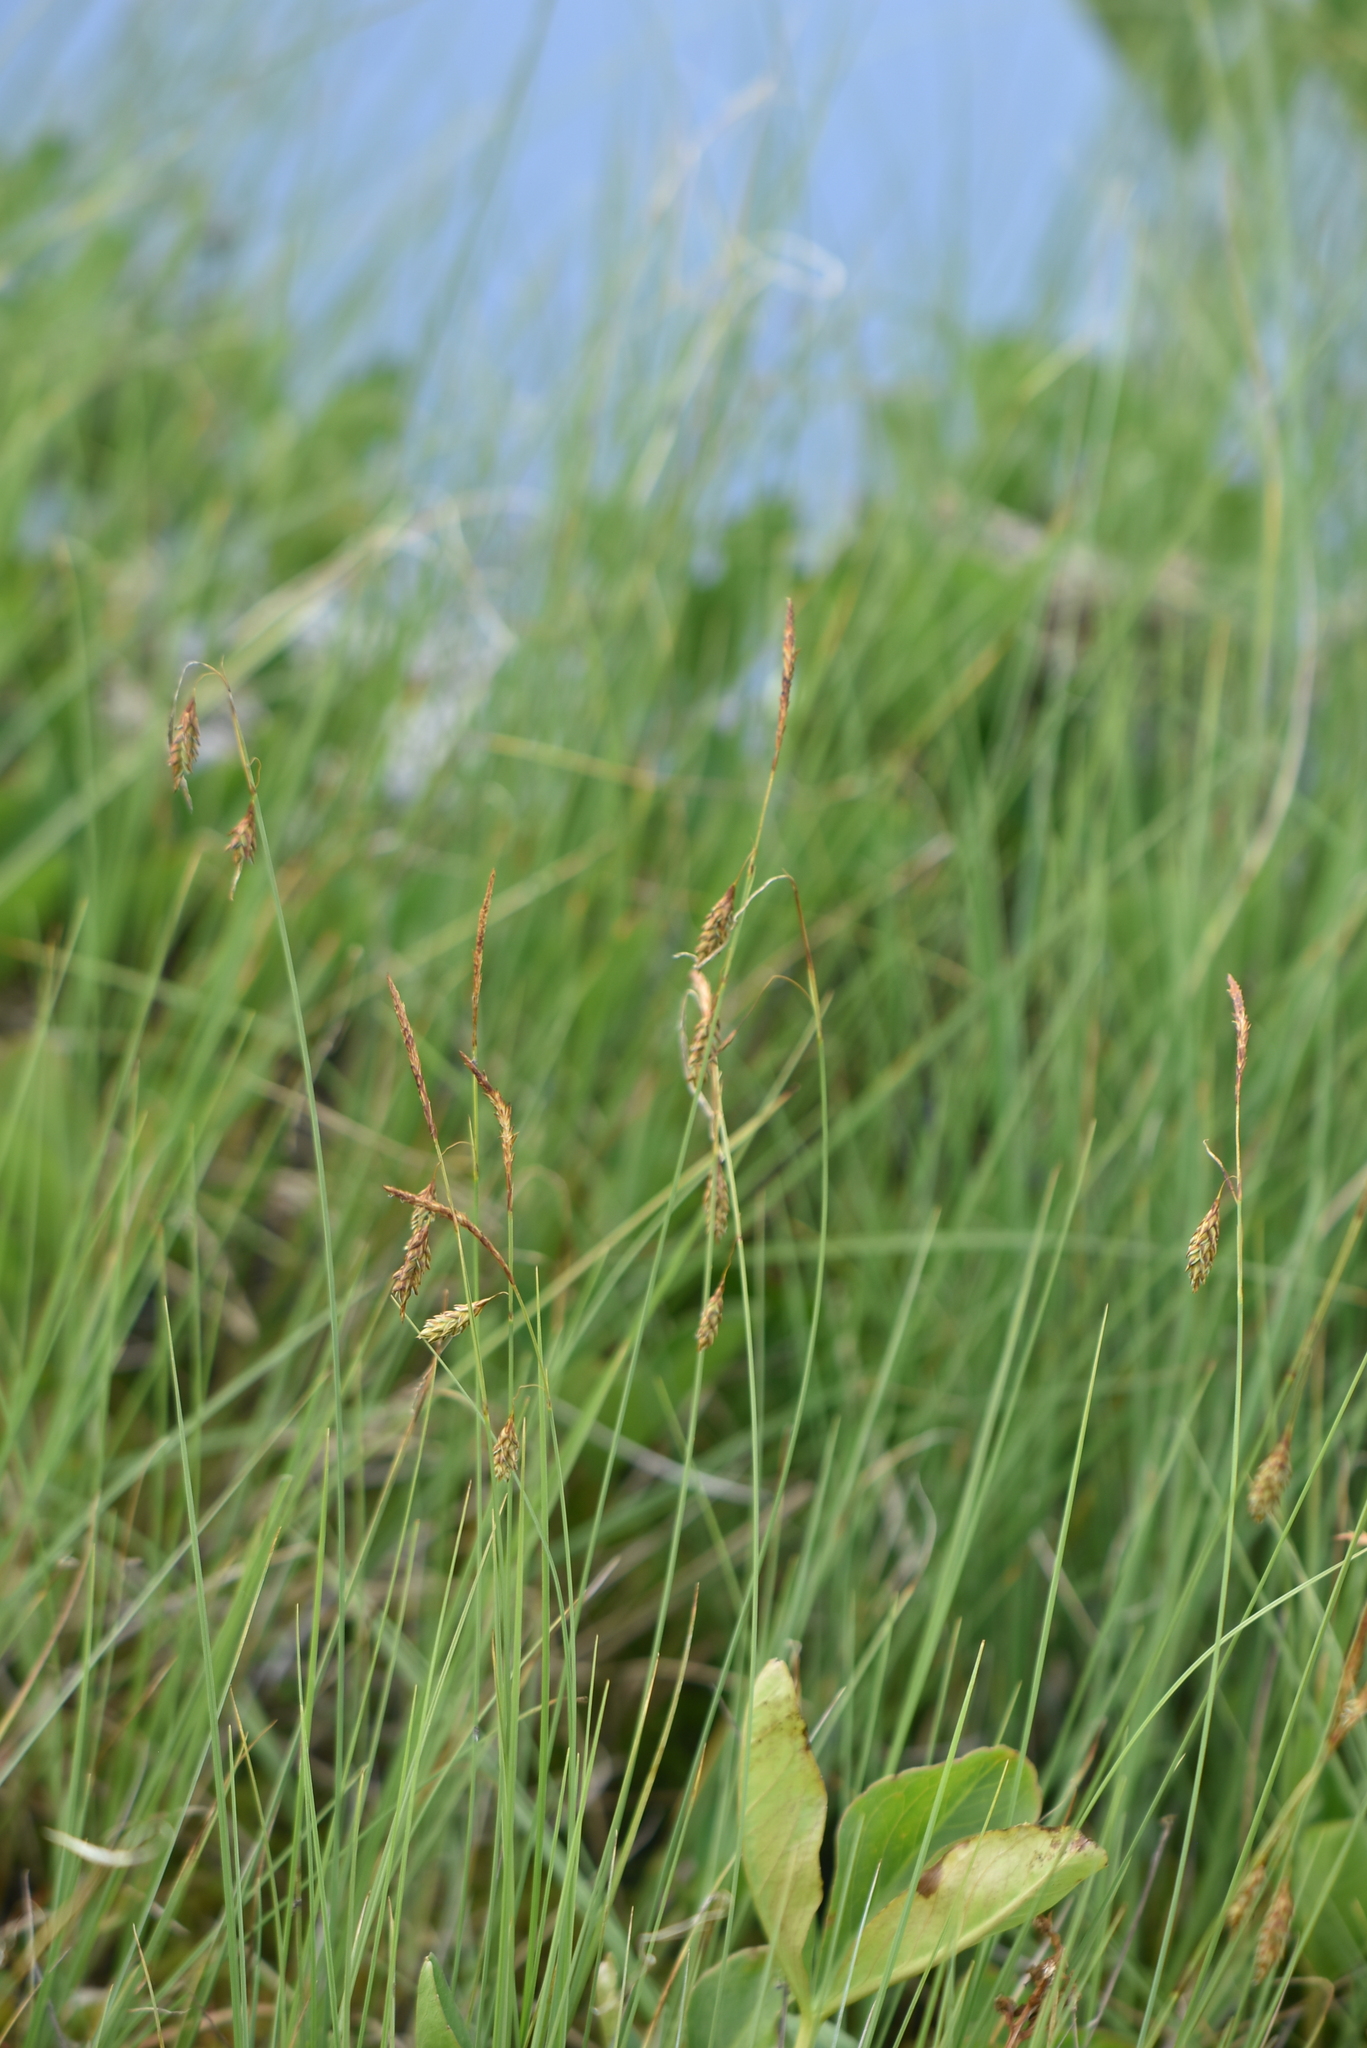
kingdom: Plantae
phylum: Tracheophyta
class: Liliopsida
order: Poales
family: Cyperaceae
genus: Carex
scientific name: Carex limosa
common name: Bog sedge
